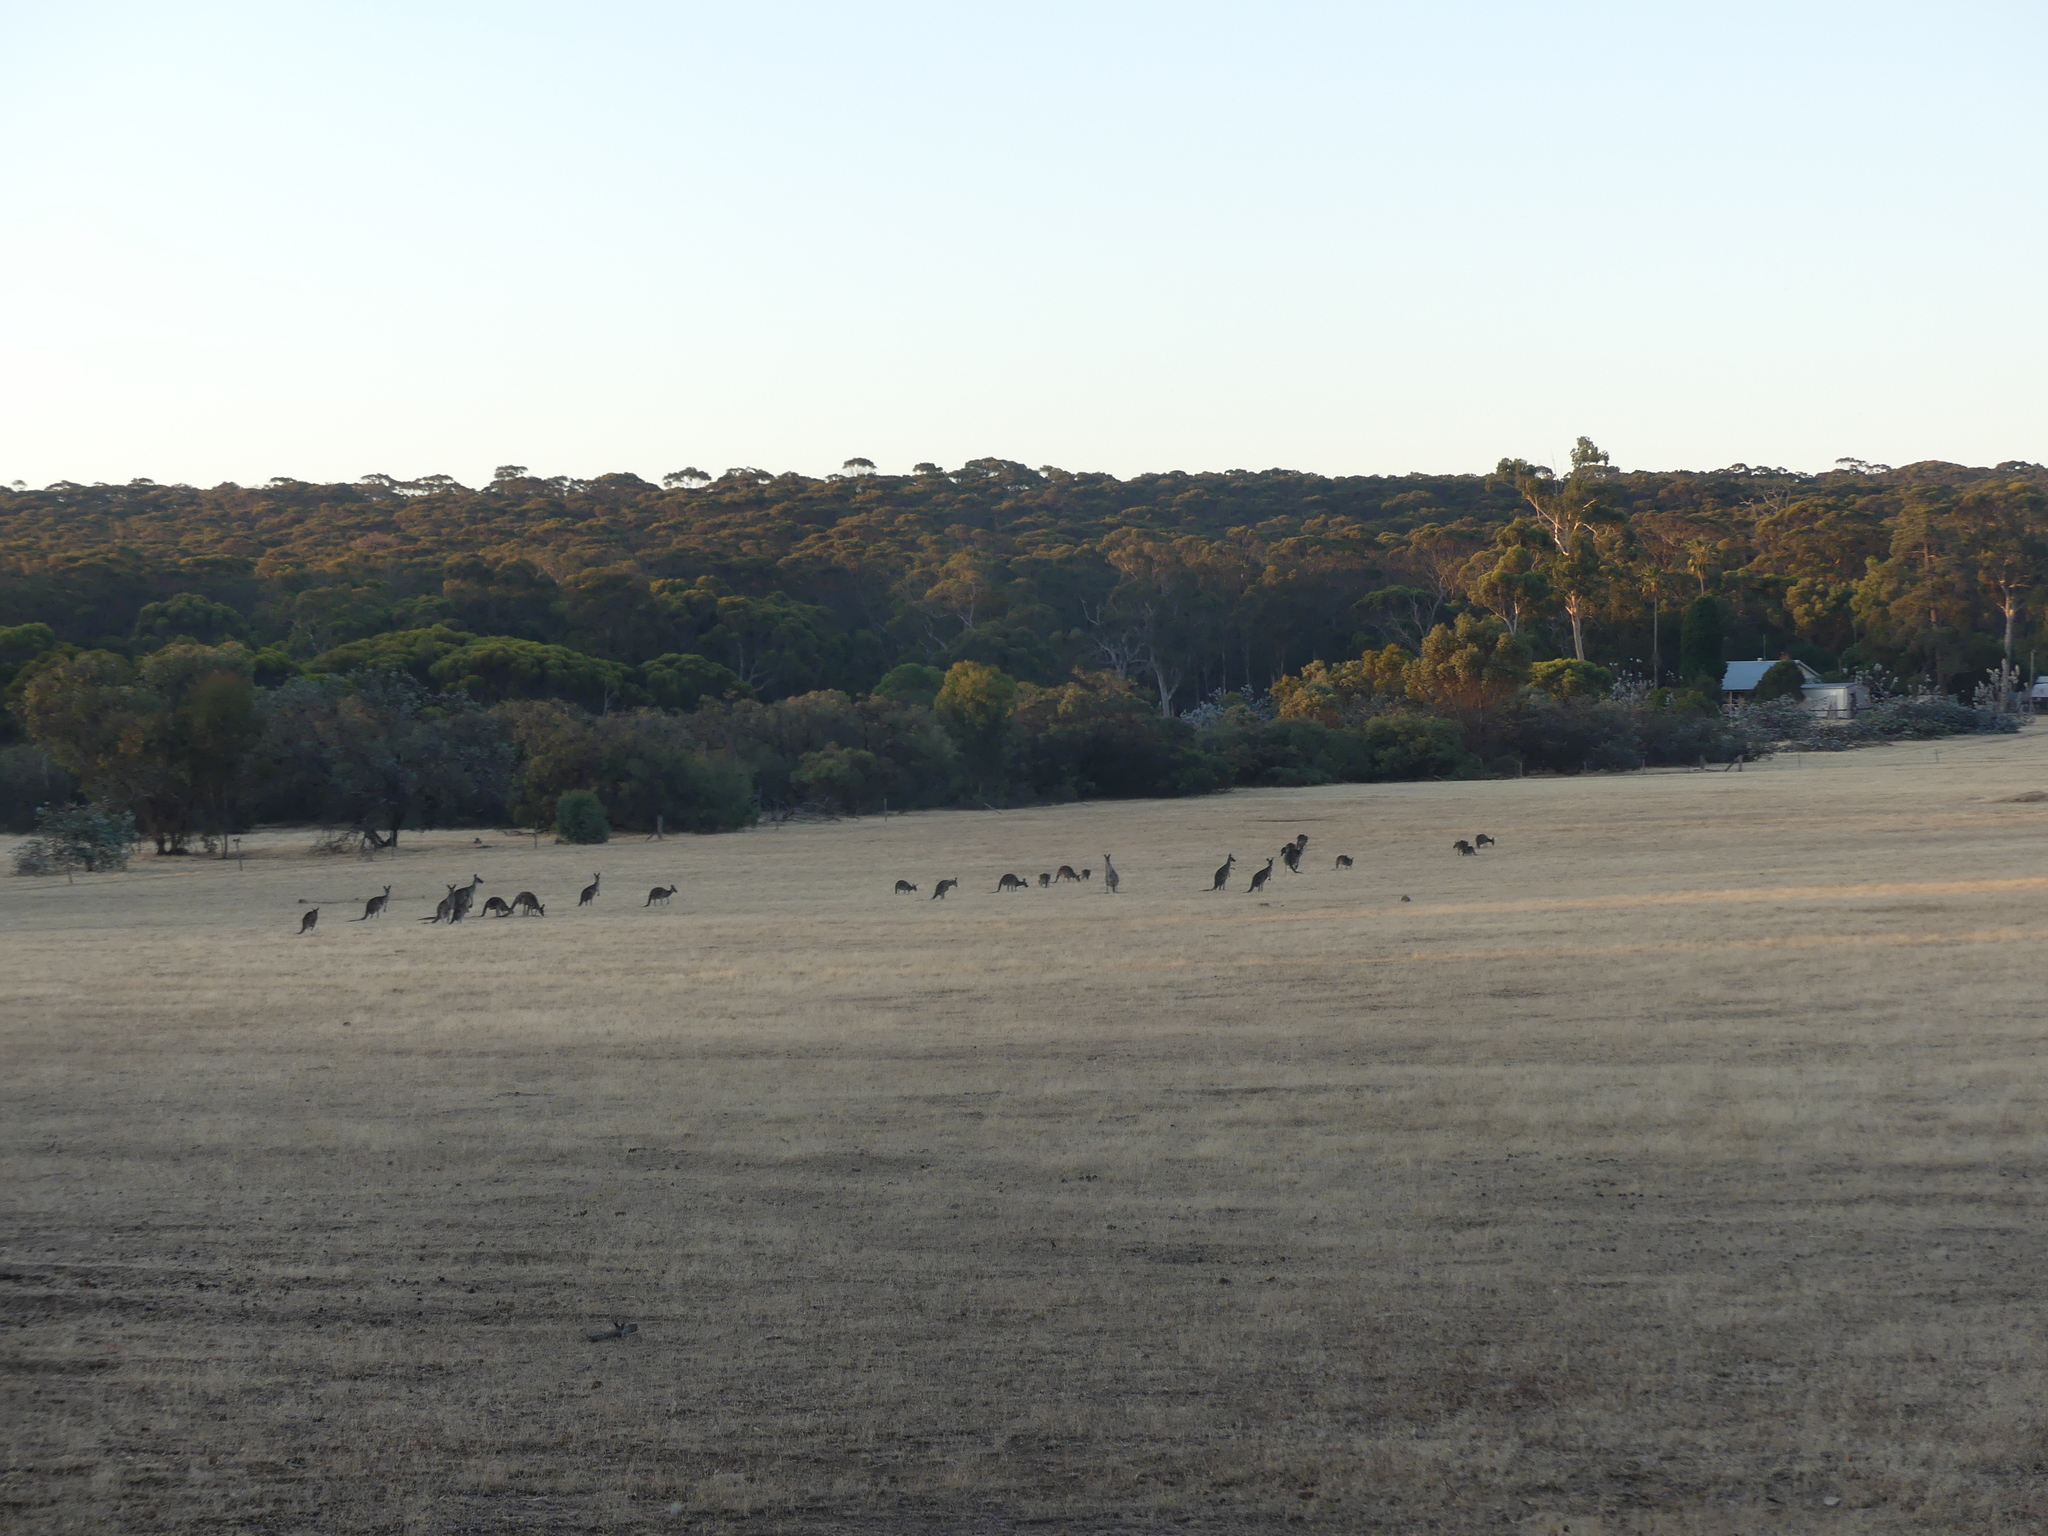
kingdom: Animalia
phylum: Chordata
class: Mammalia
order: Diprotodontia
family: Macropodidae
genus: Macropus
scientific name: Macropus fuliginosus
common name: Western grey kangaroo
